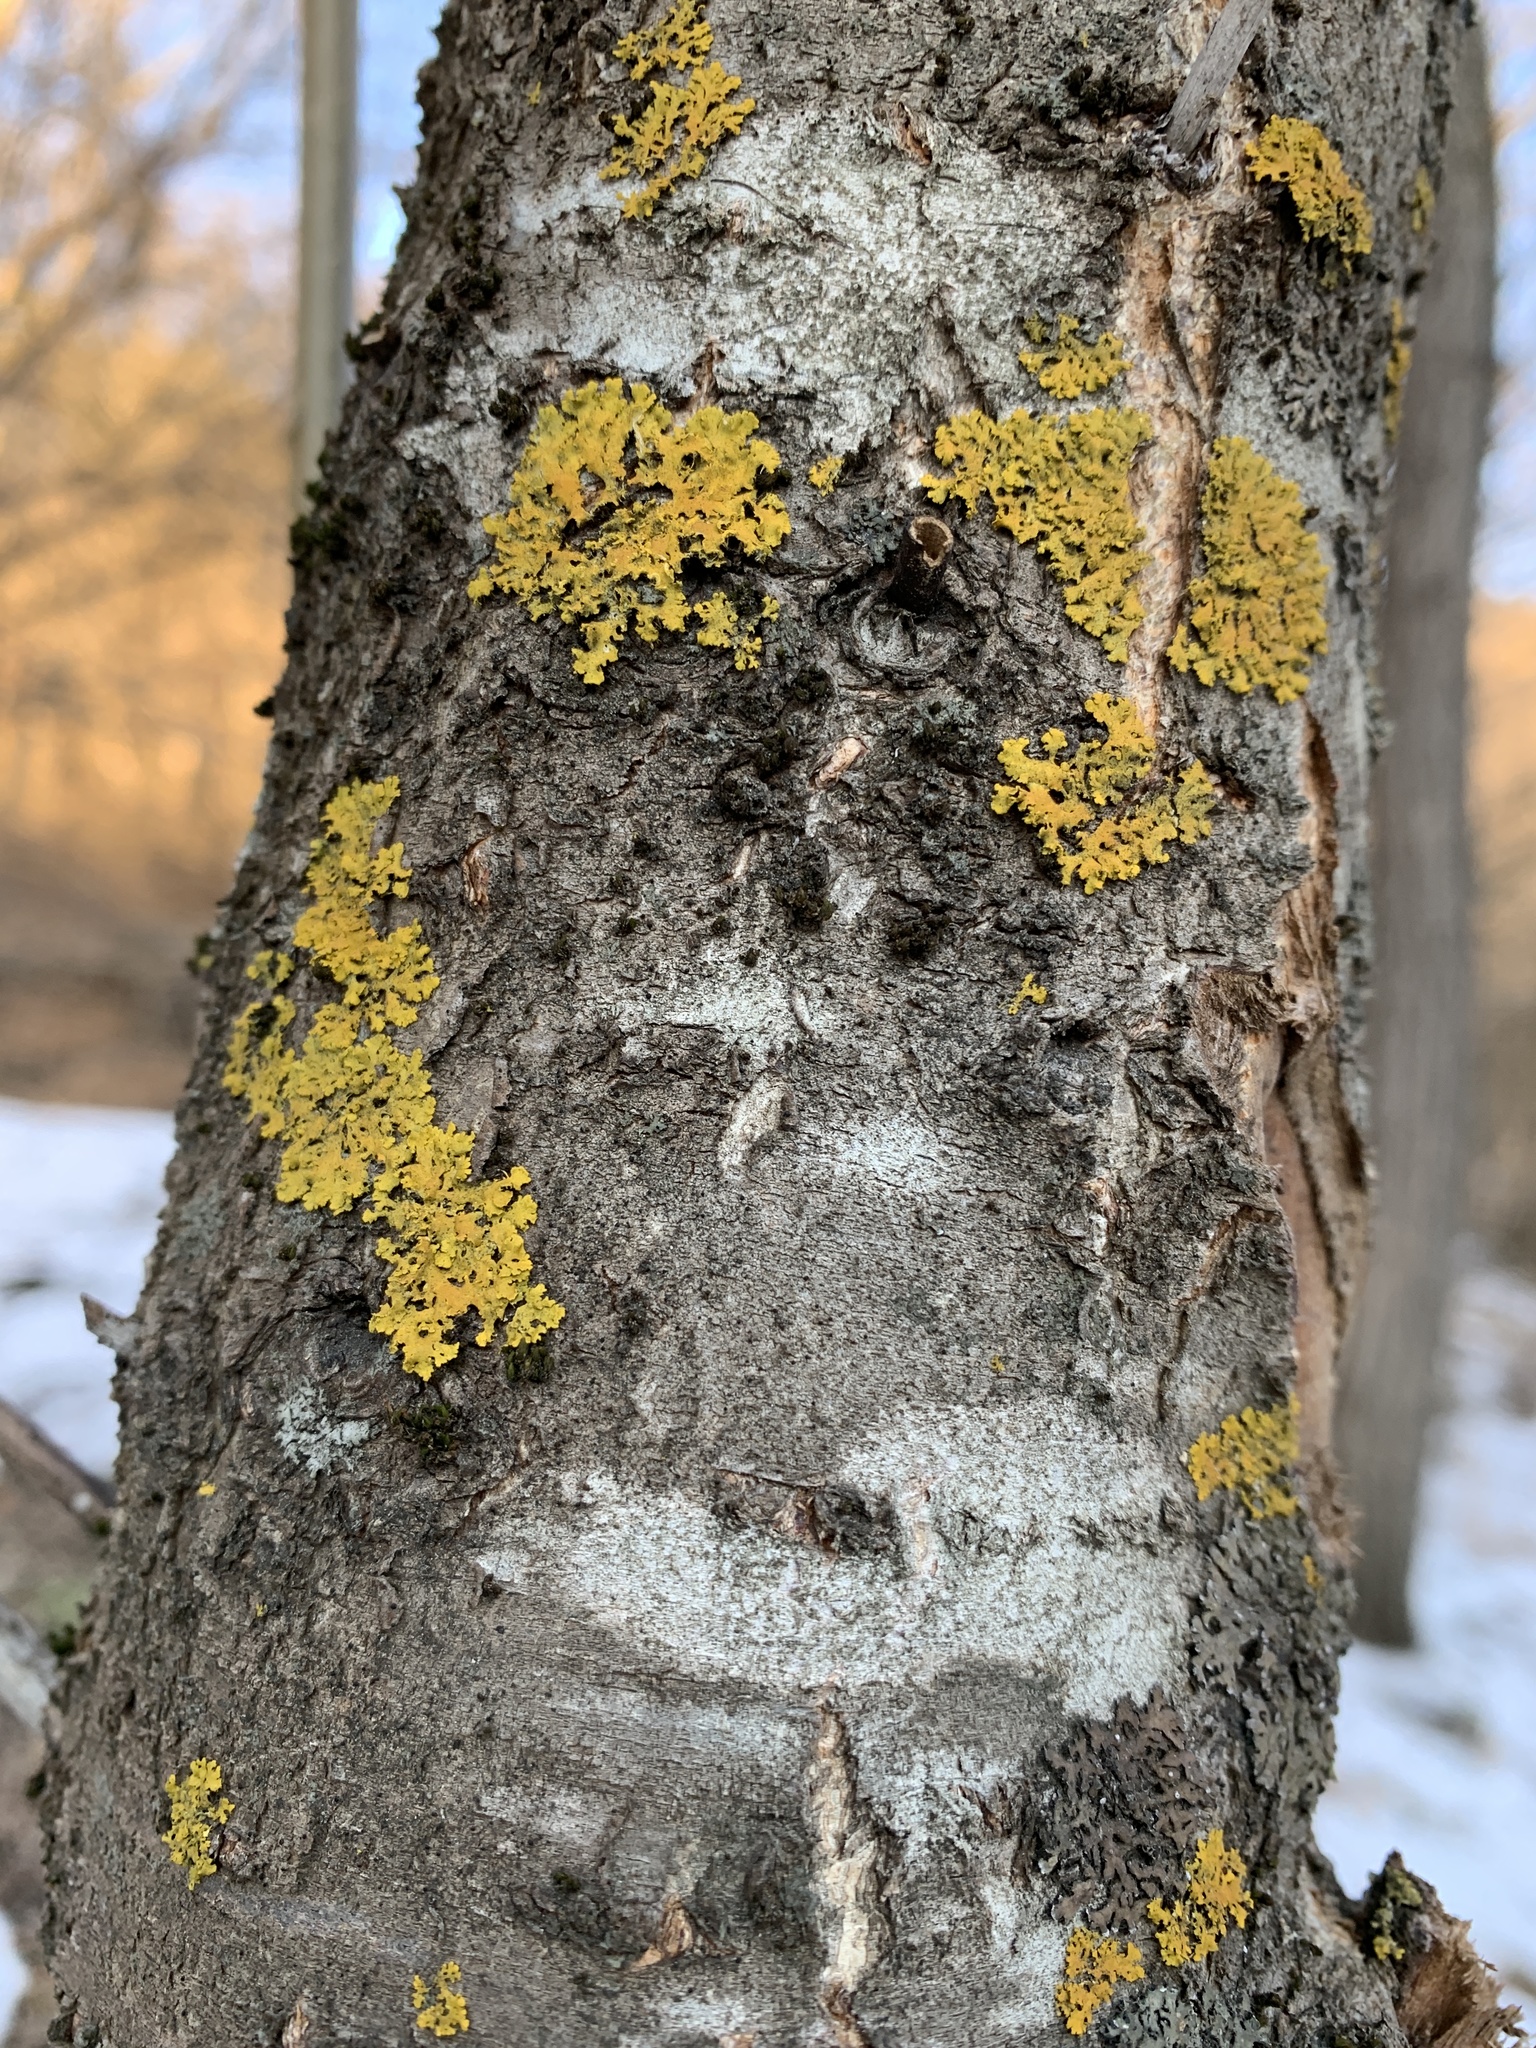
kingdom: Fungi
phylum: Ascomycota
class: Lecanoromycetes
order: Teloschistales
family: Teloschistaceae
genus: Xanthoria
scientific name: Xanthoria parietina
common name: Common orange lichen
